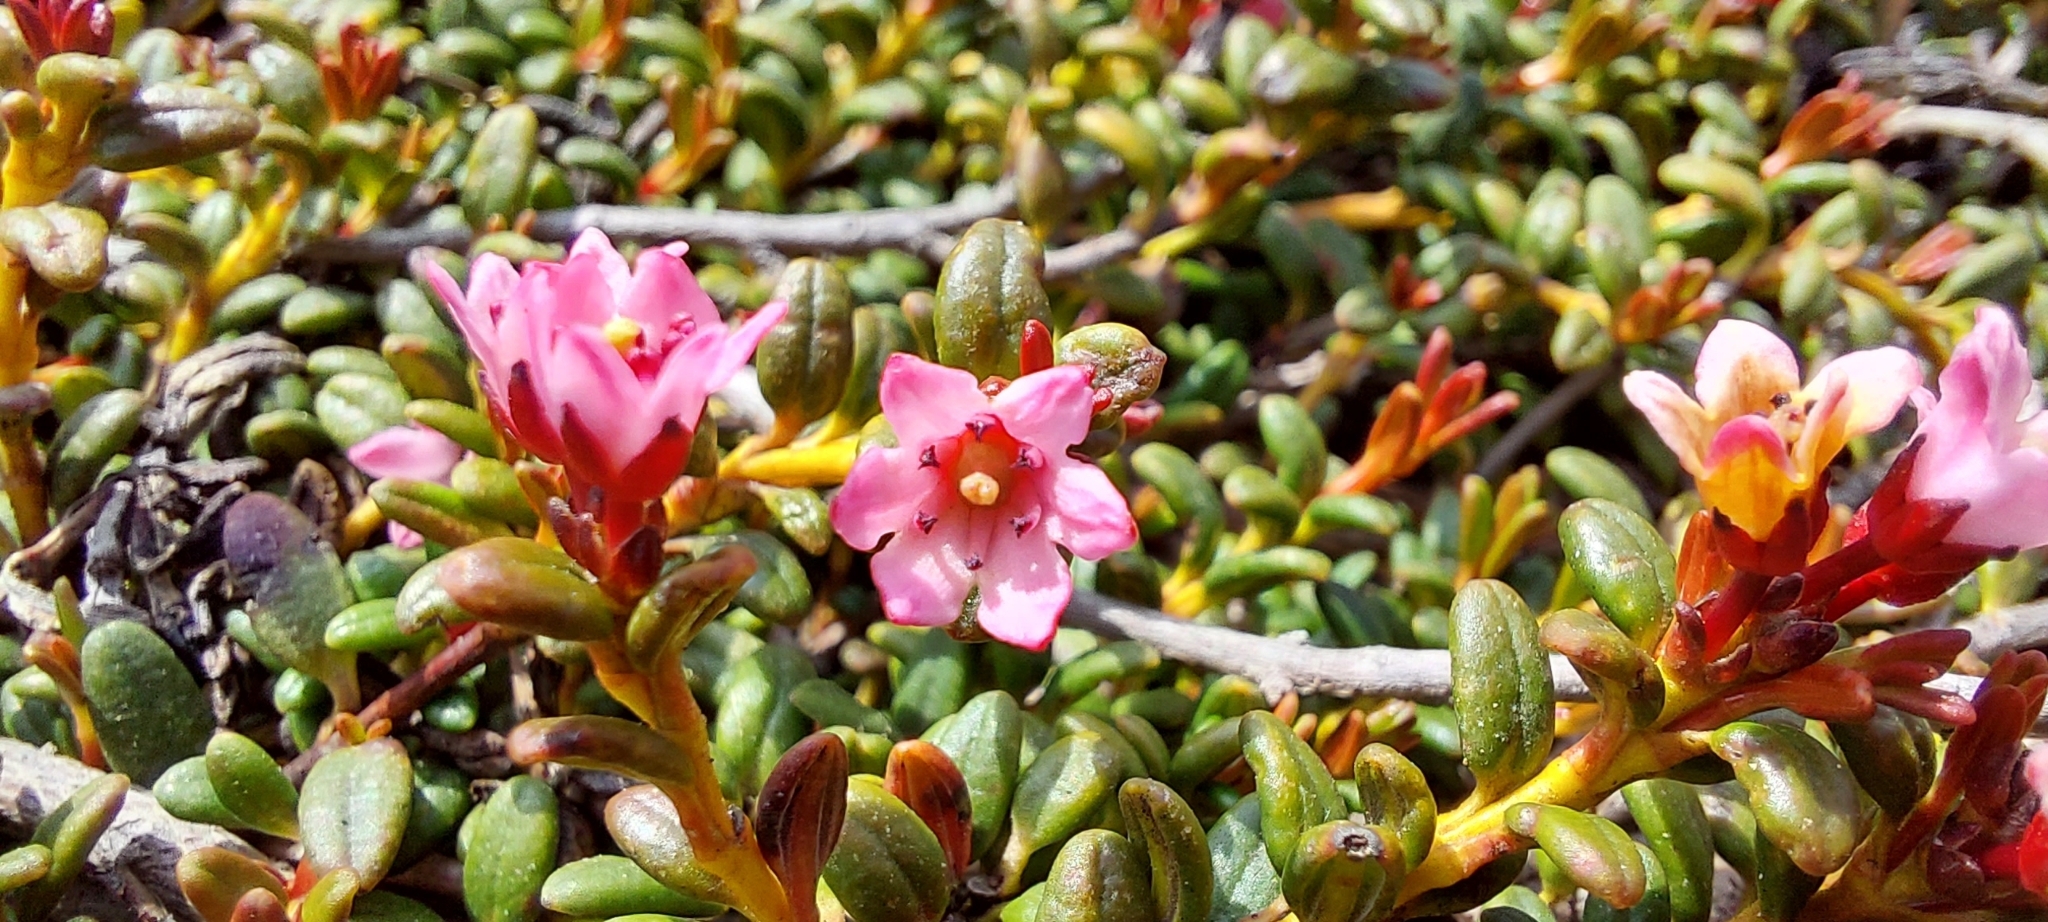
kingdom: Plantae
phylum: Tracheophyta
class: Magnoliopsida
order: Ericales
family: Ericaceae
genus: Kalmia
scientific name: Kalmia procumbens
